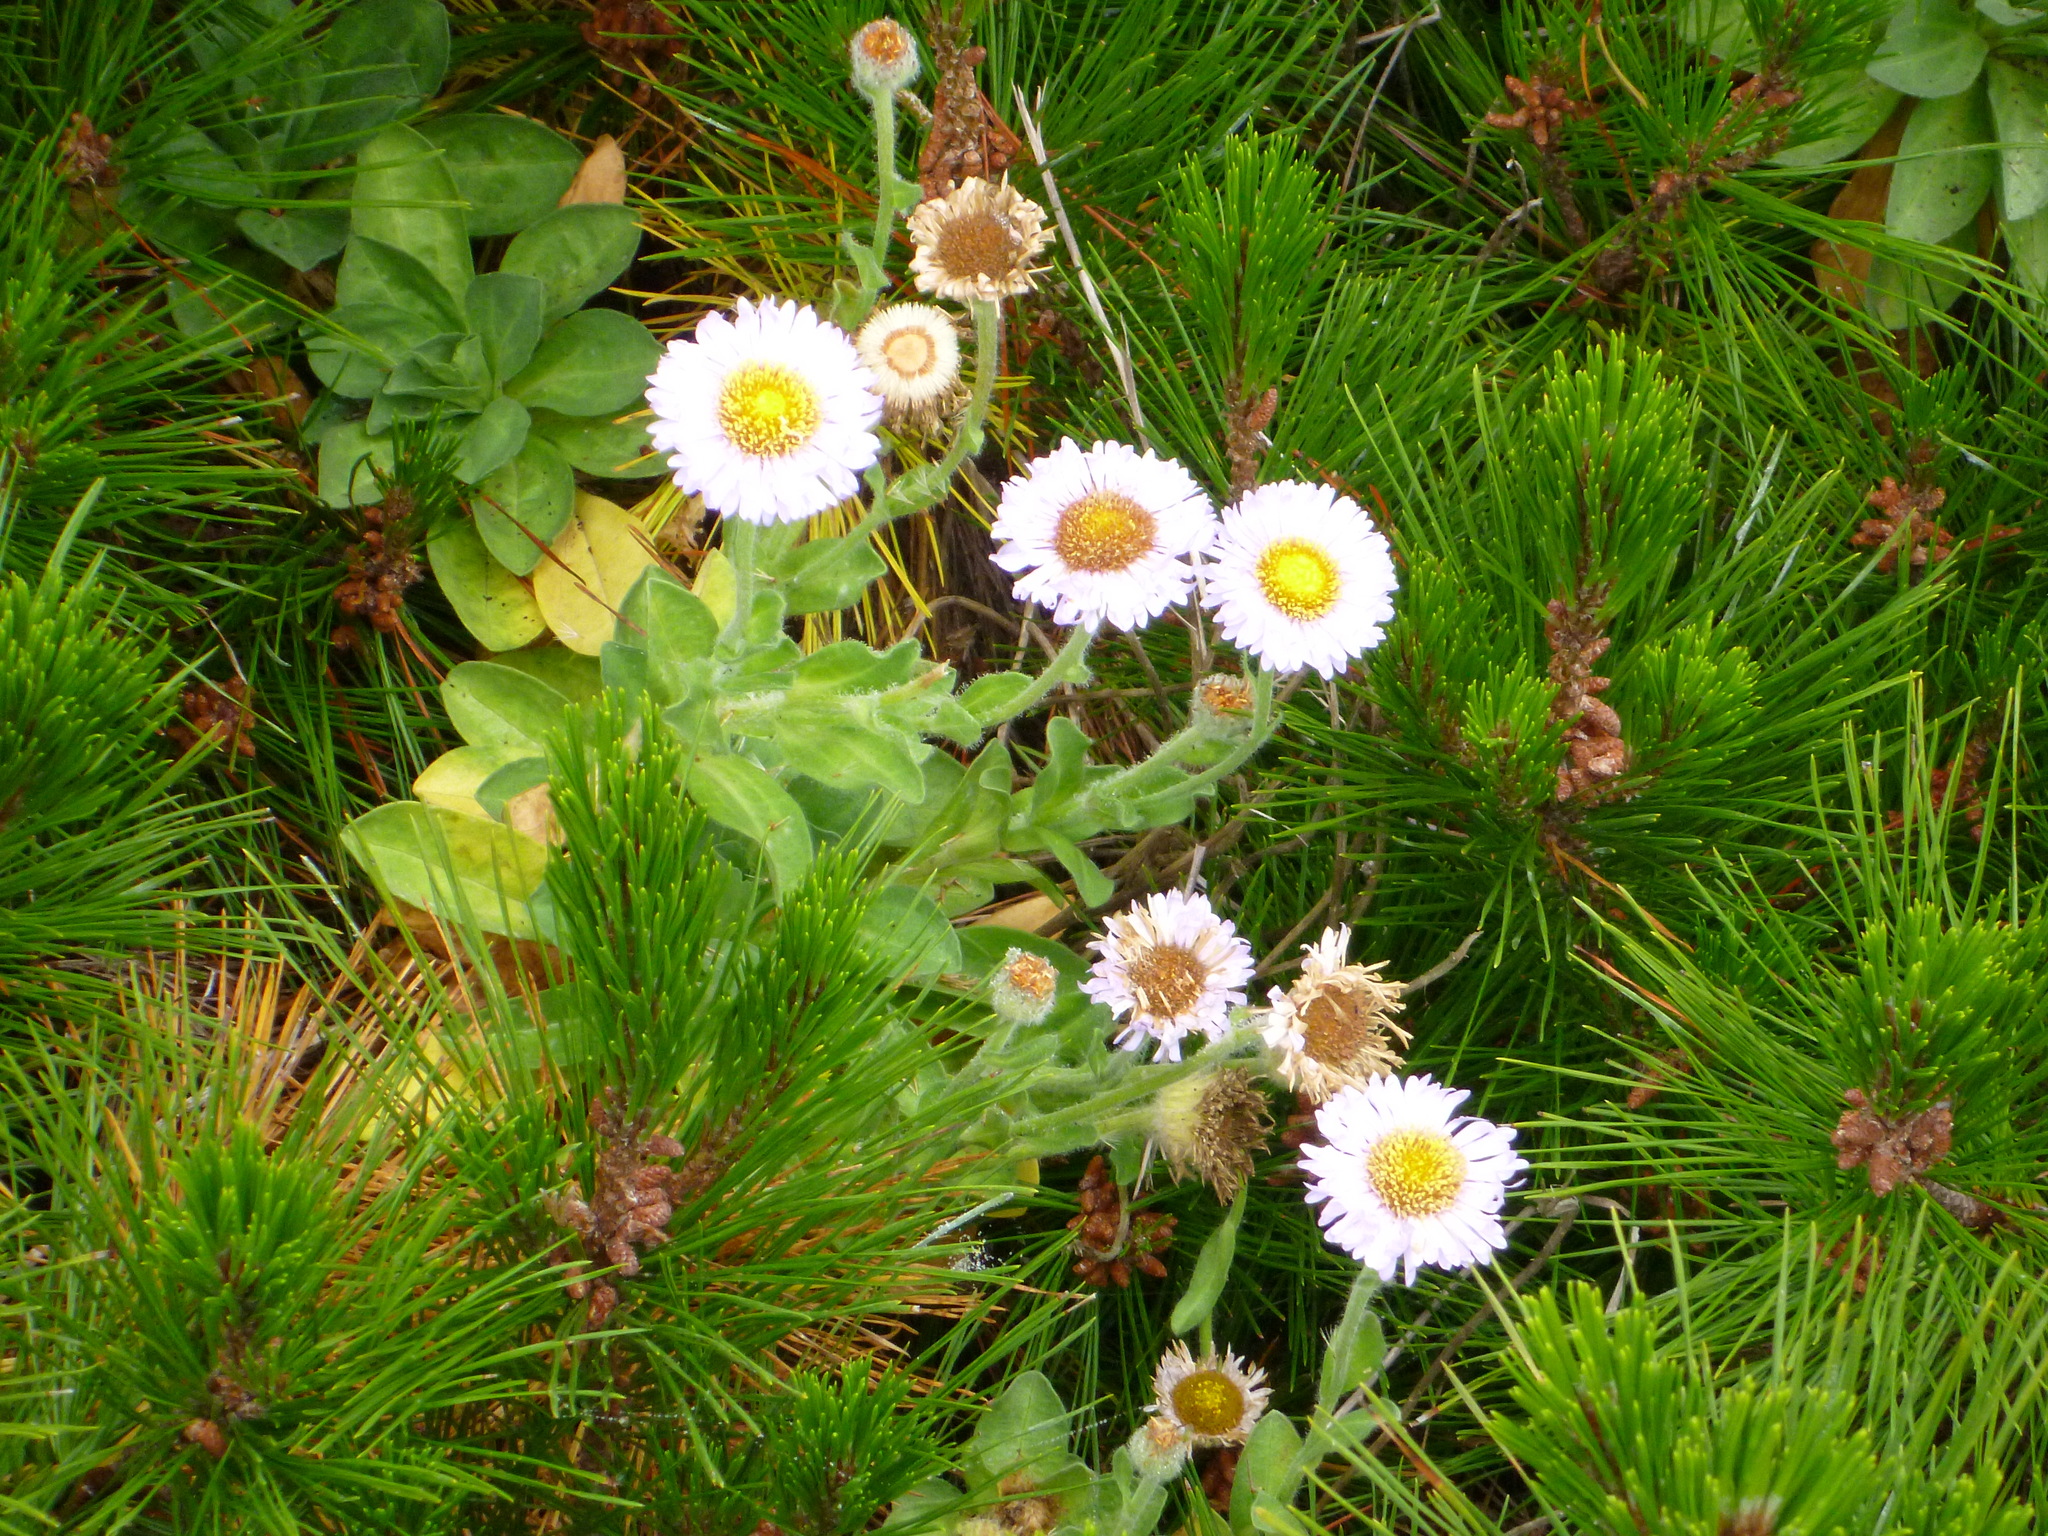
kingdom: Plantae
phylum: Tracheophyta
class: Magnoliopsida
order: Asterales
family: Asteraceae
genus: Erigeron
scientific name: Erigeron glaucus
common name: Seaside daisy
